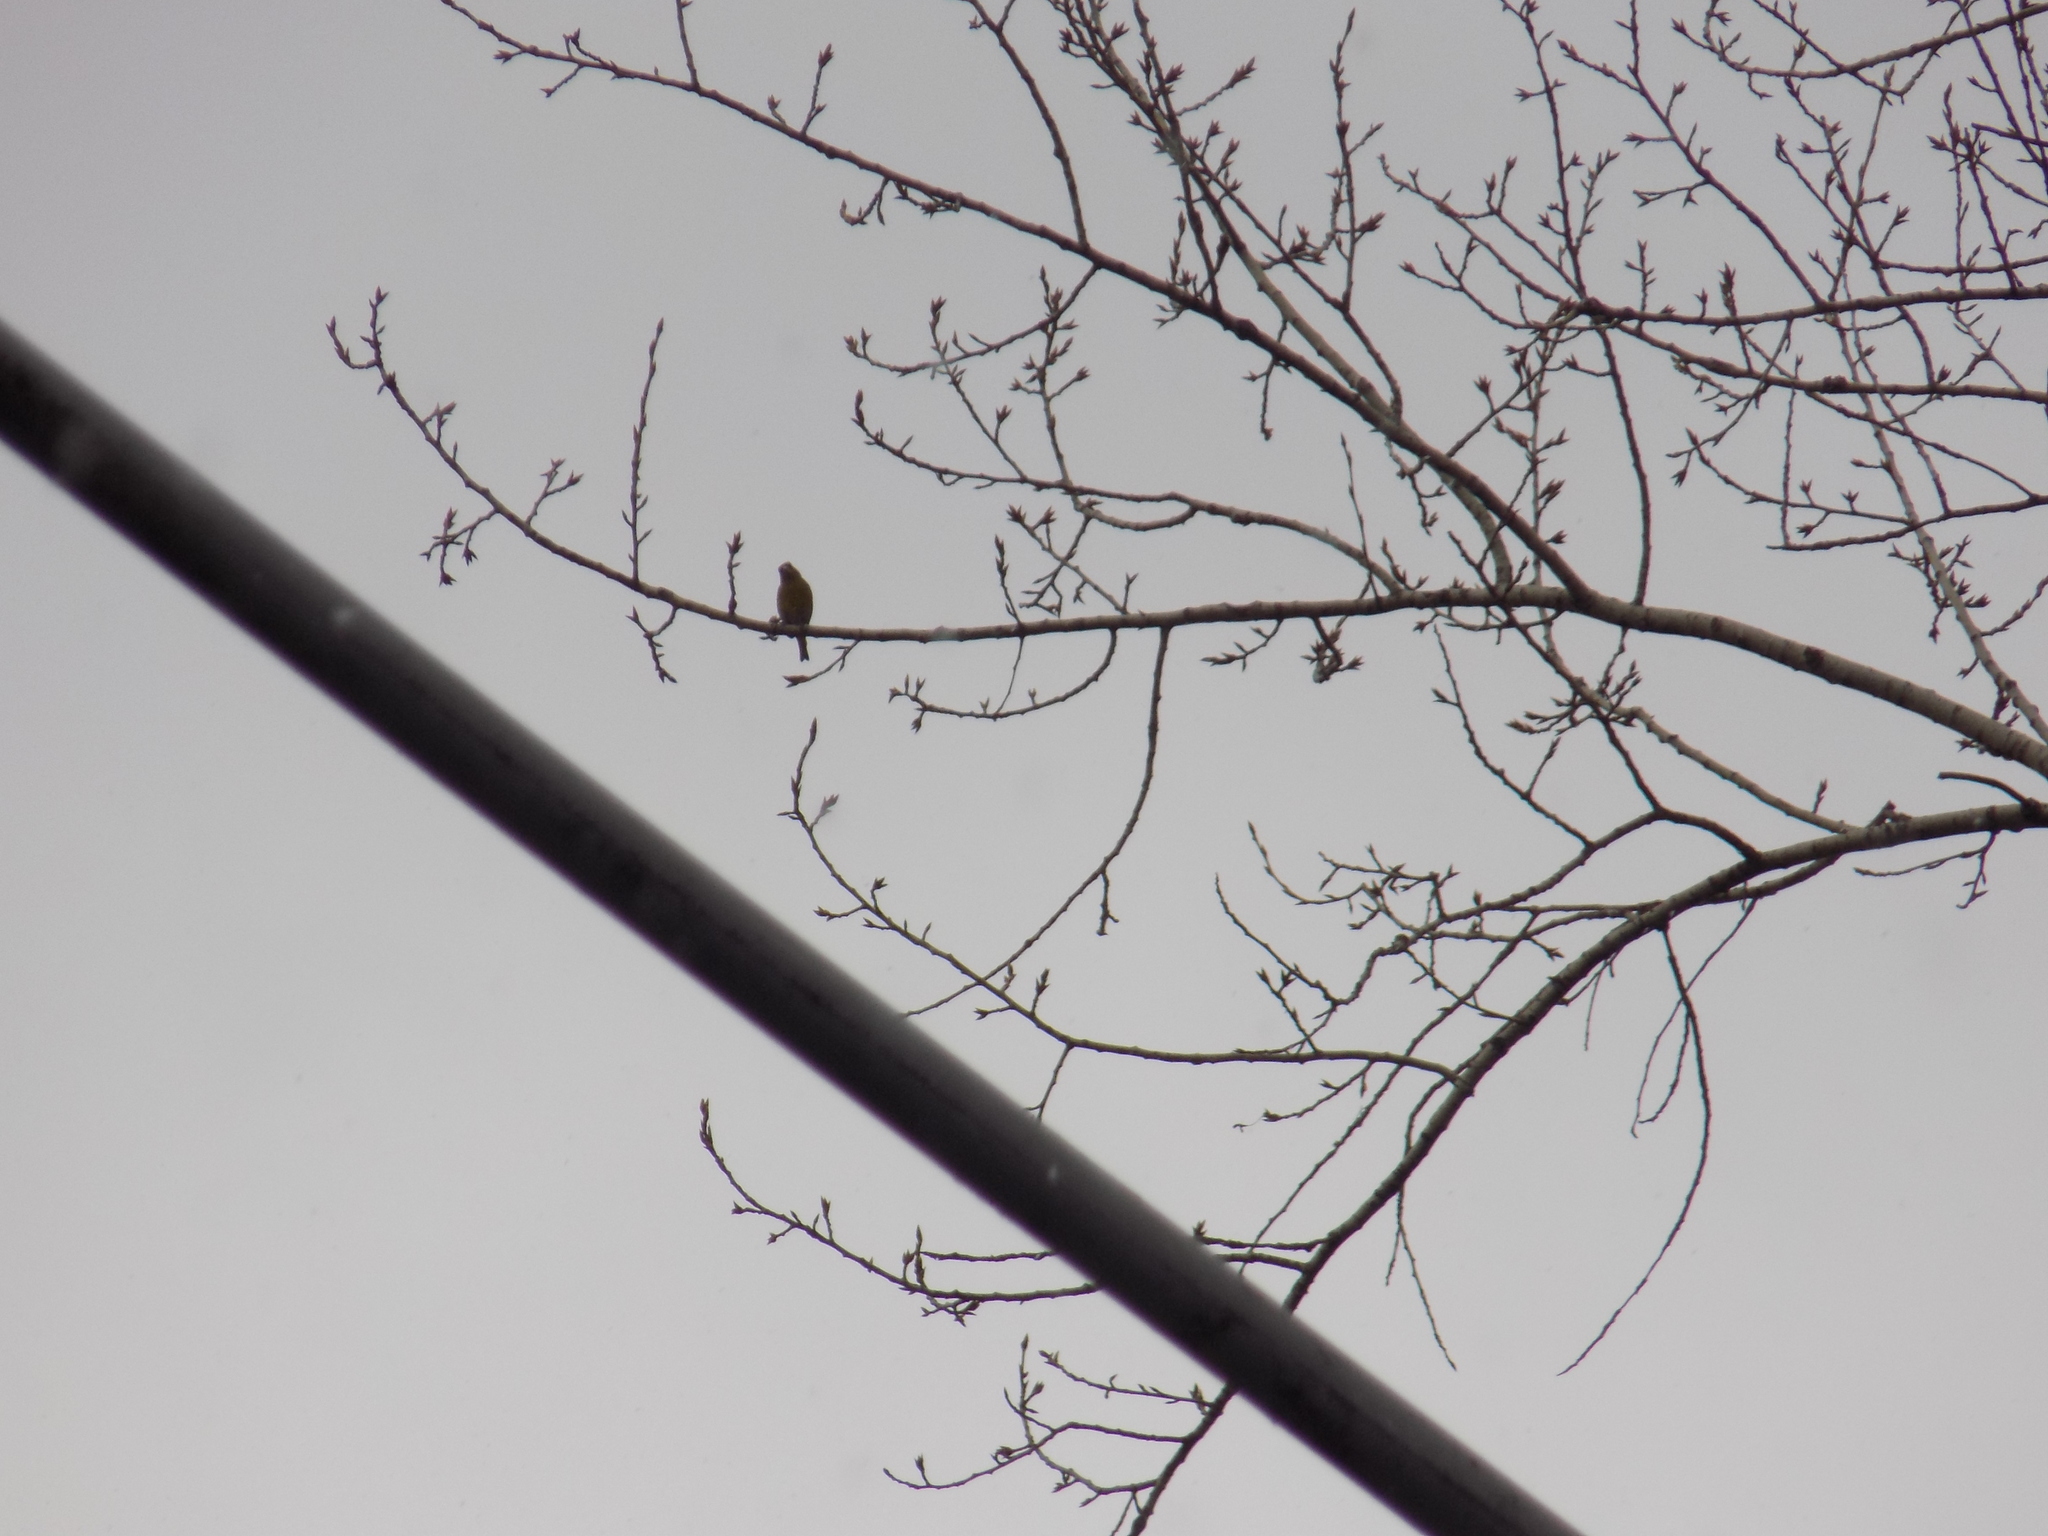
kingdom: Plantae
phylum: Tracheophyta
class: Liliopsida
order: Poales
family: Poaceae
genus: Chloris
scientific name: Chloris chloris
